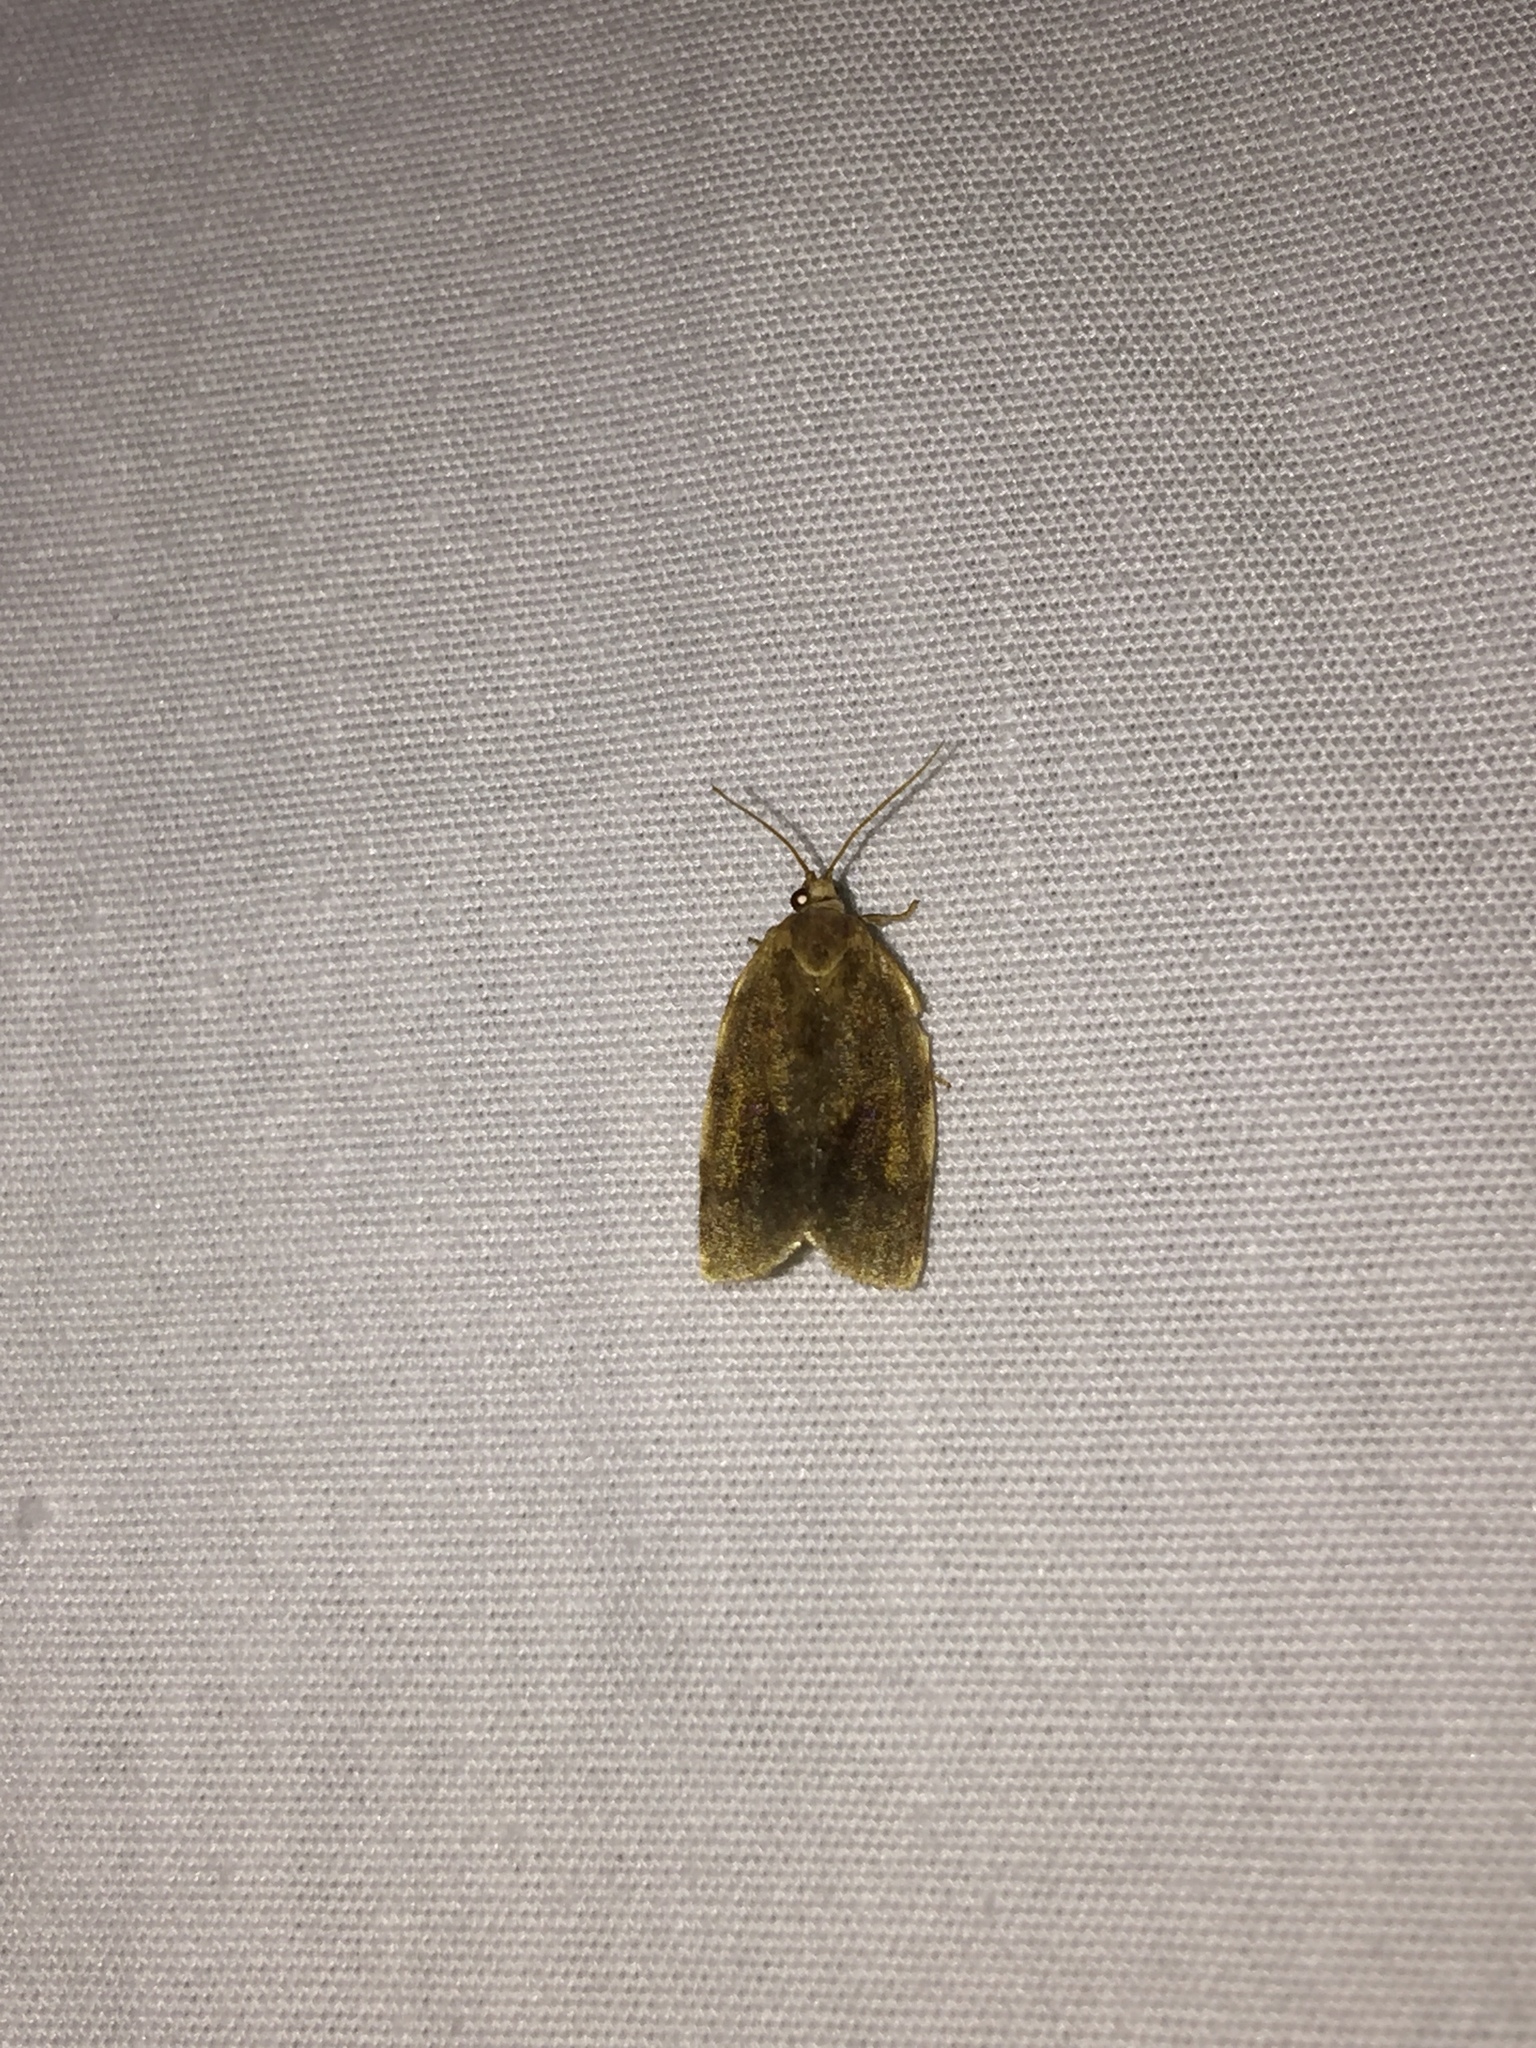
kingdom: Animalia
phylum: Arthropoda
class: Insecta
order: Lepidoptera
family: Tortricidae
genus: Choristoneura
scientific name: Choristoneura fractivittana
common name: Broken-banded leafroller moth
